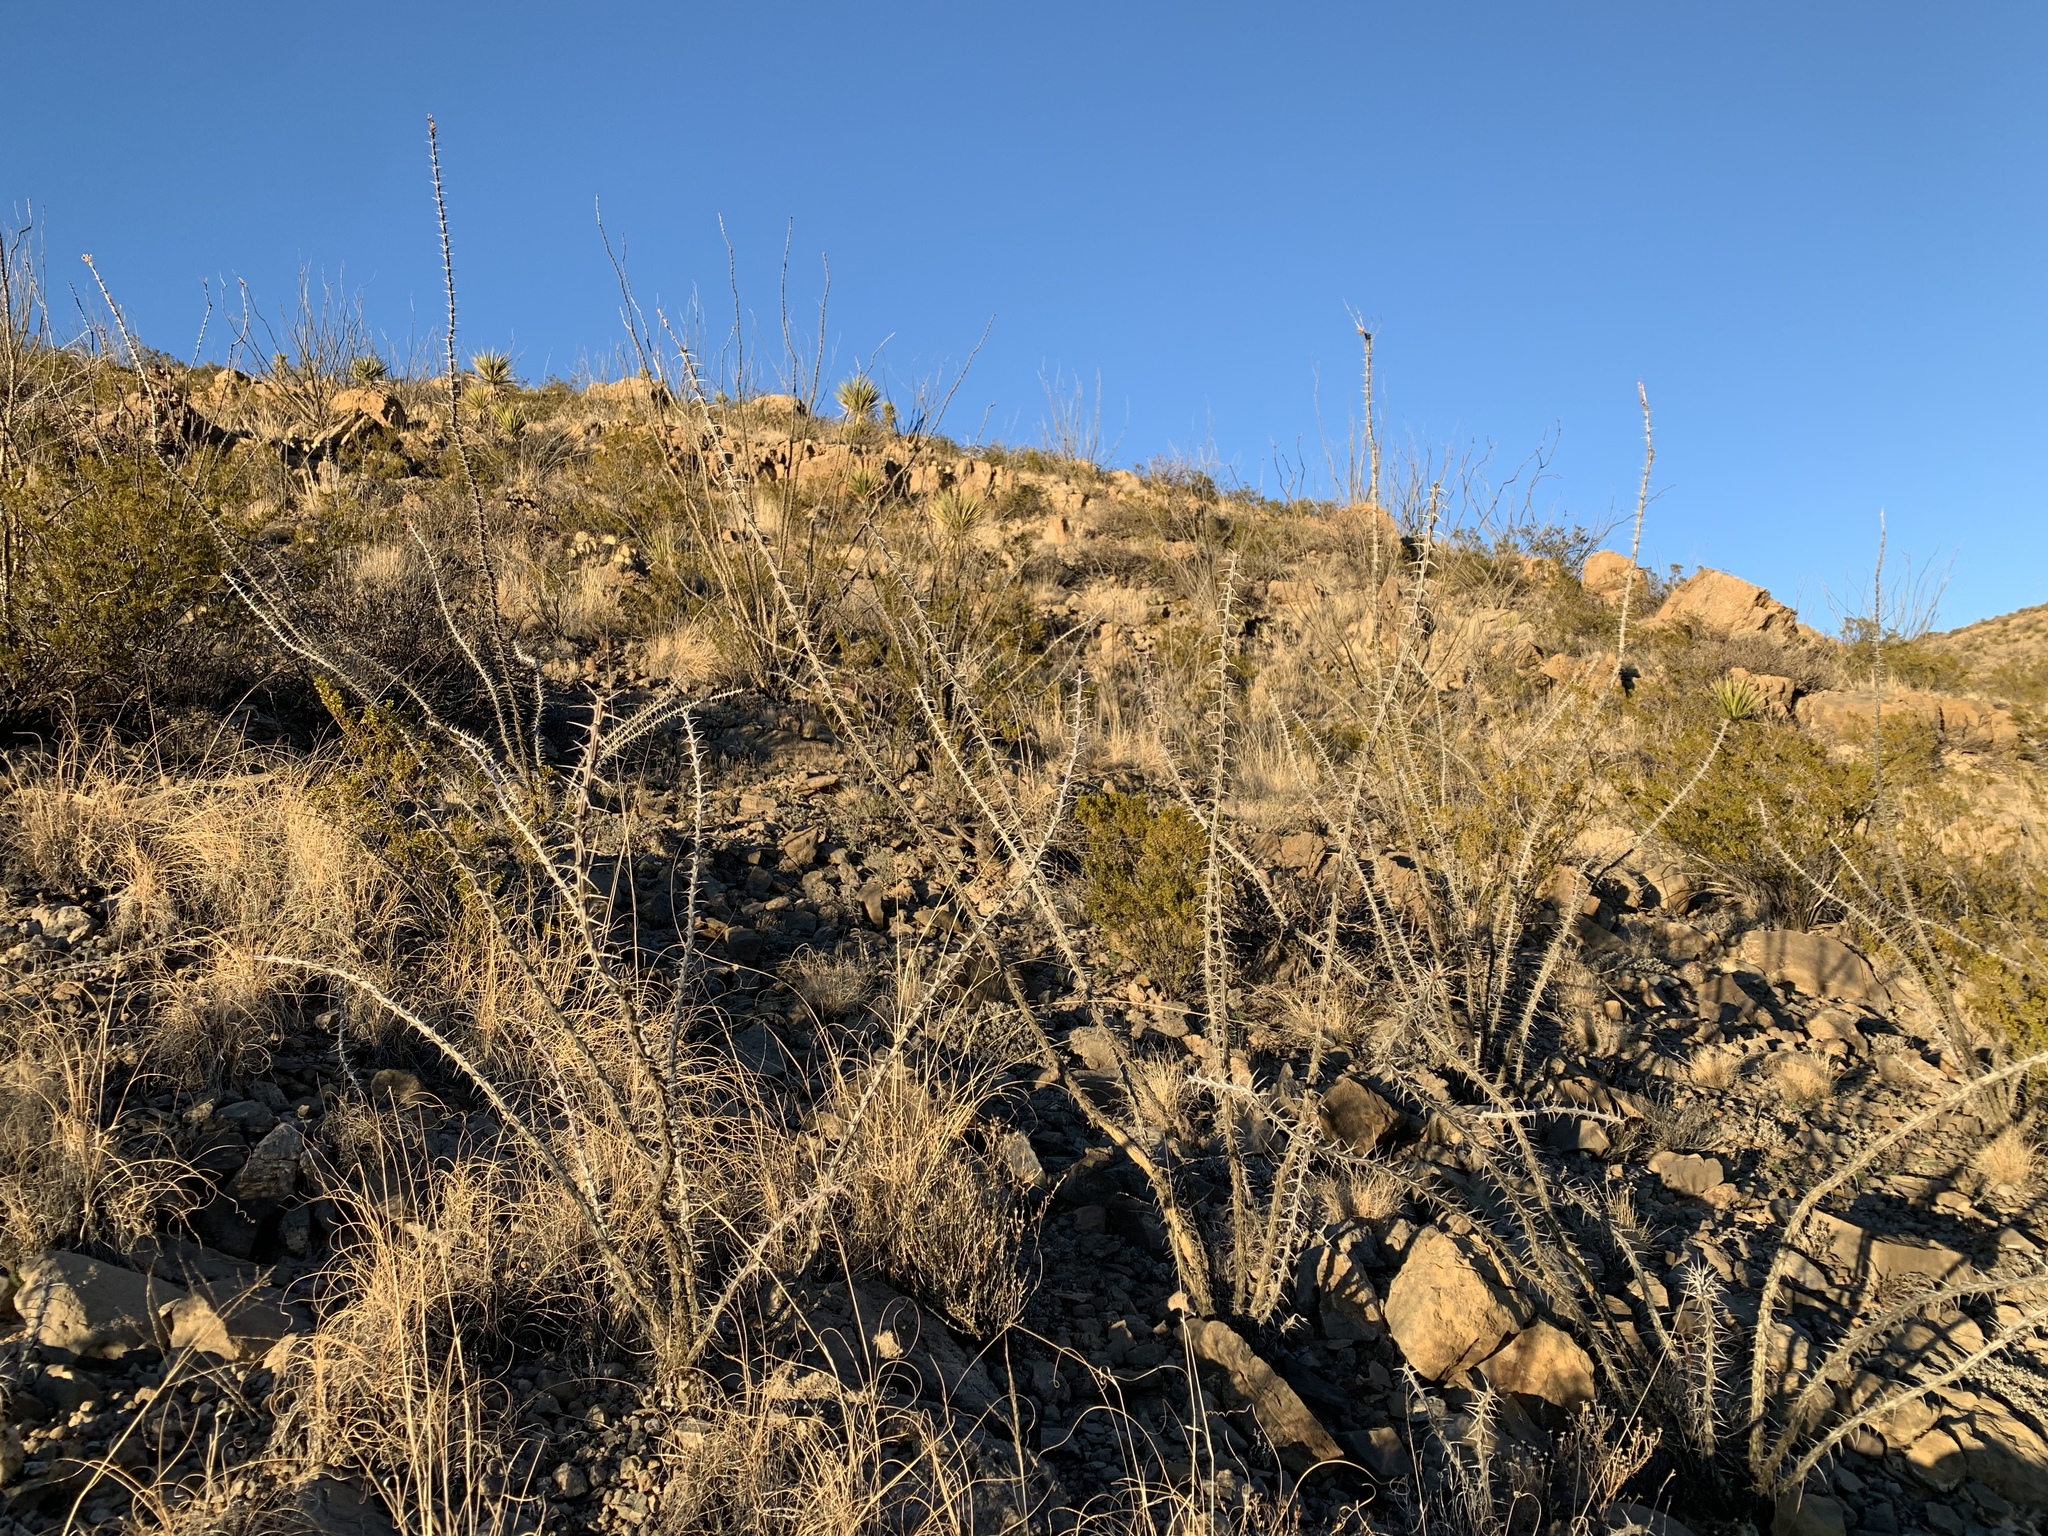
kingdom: Plantae
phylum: Tracheophyta
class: Magnoliopsida
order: Ericales
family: Fouquieriaceae
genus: Fouquieria
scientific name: Fouquieria splendens
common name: Vine-cactus
